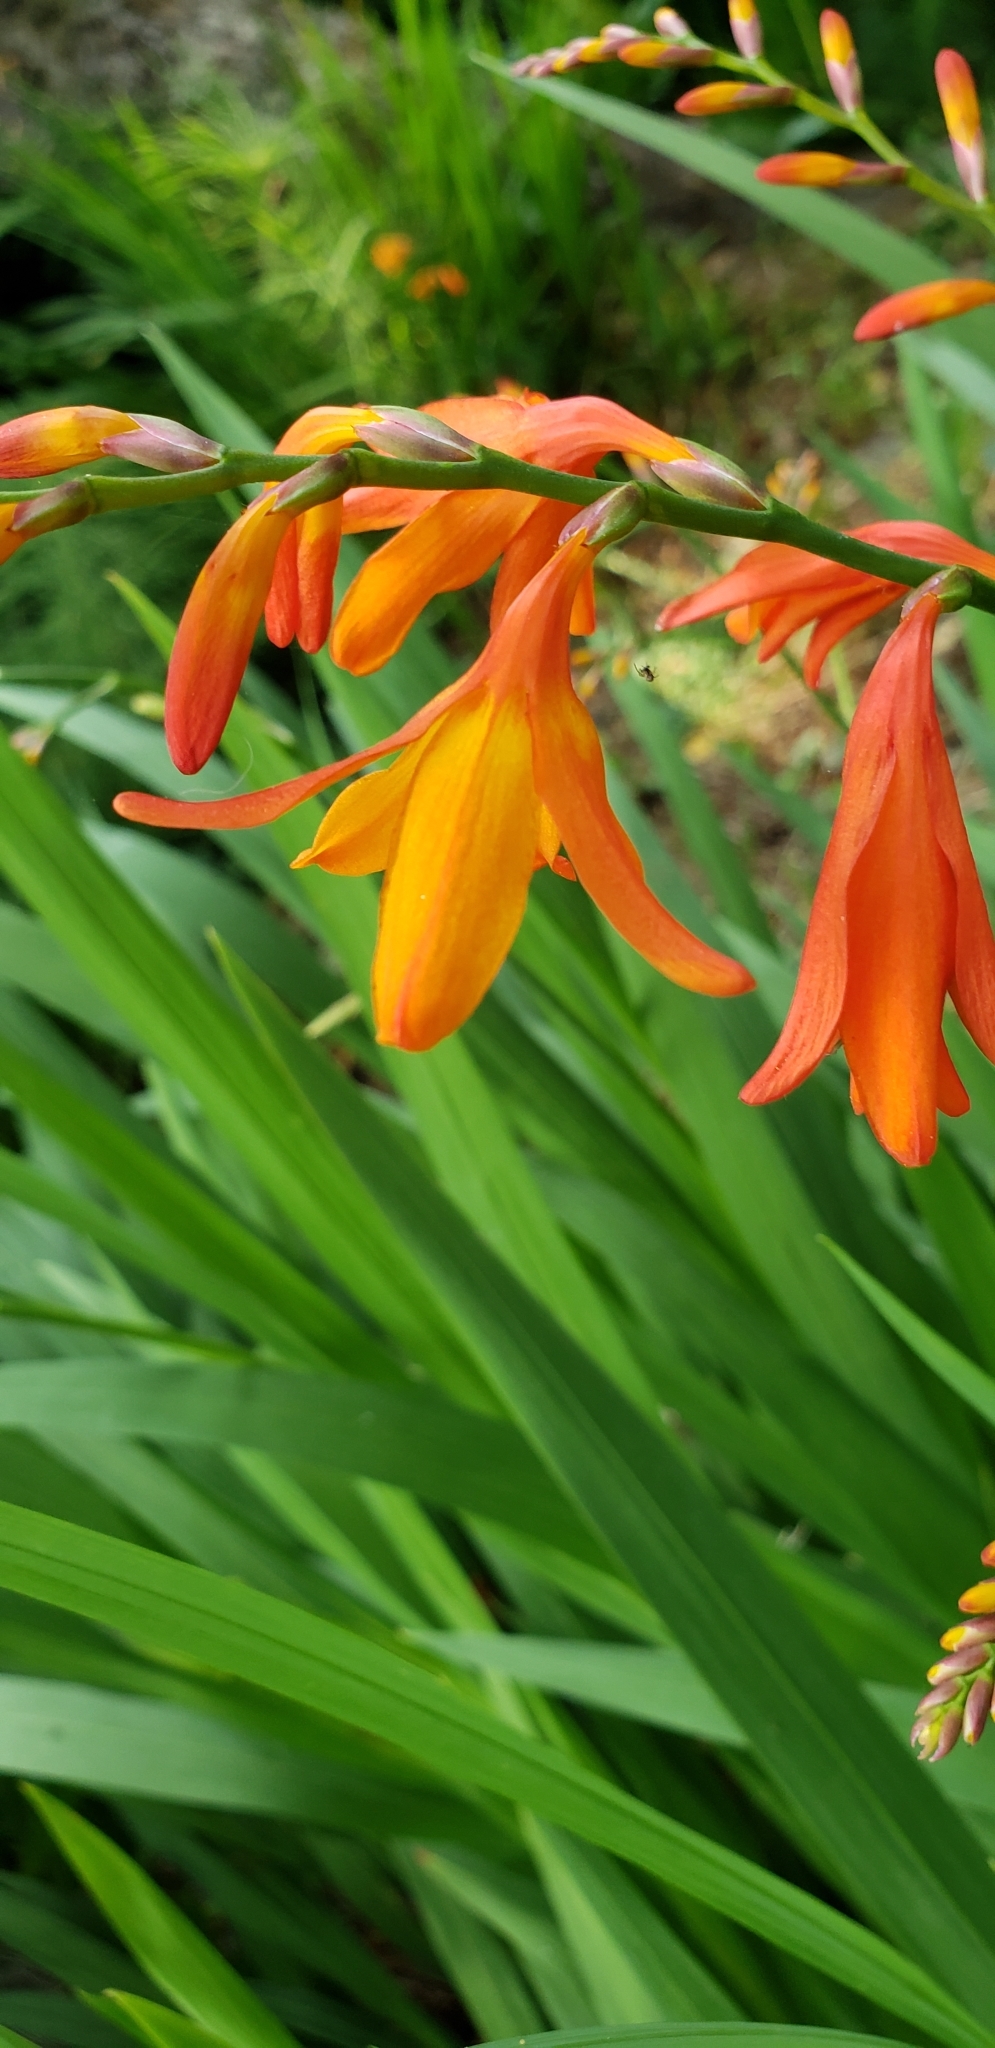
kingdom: Plantae
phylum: Tracheophyta
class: Liliopsida
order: Asparagales
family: Iridaceae
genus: Crocosmia
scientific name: Crocosmia crocosmiiflora
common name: Montbretia
